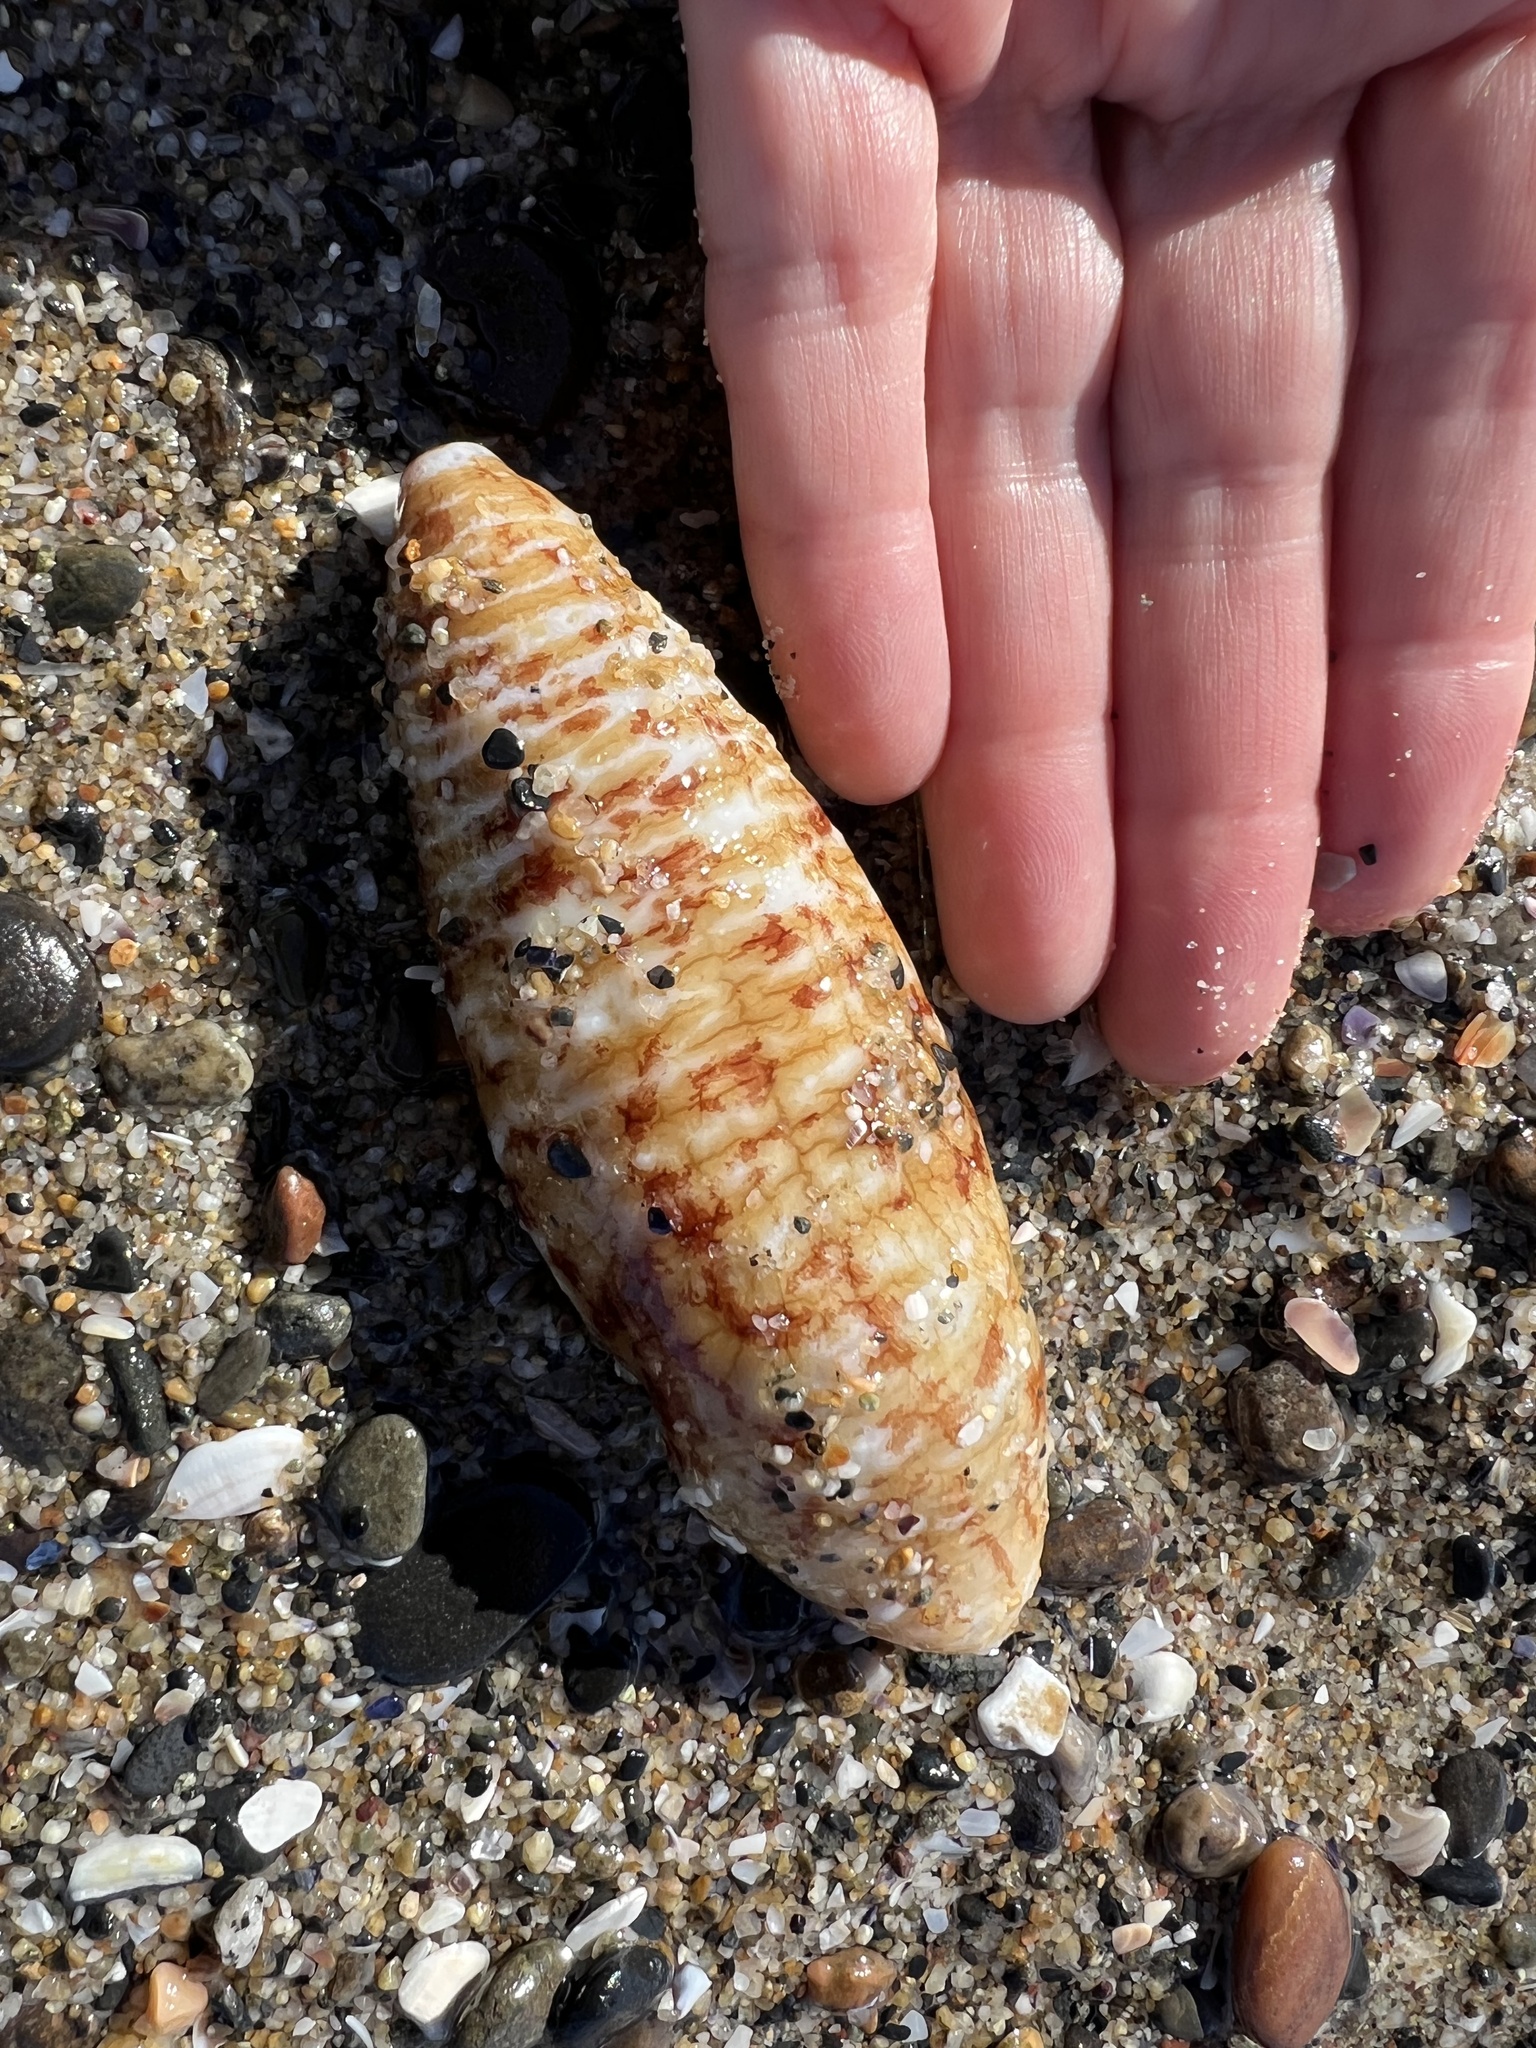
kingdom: Animalia
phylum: Echinodermata
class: Holothuroidea
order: Molpadida
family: Caudinidae
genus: Caudina
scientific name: Caudina arenicola
